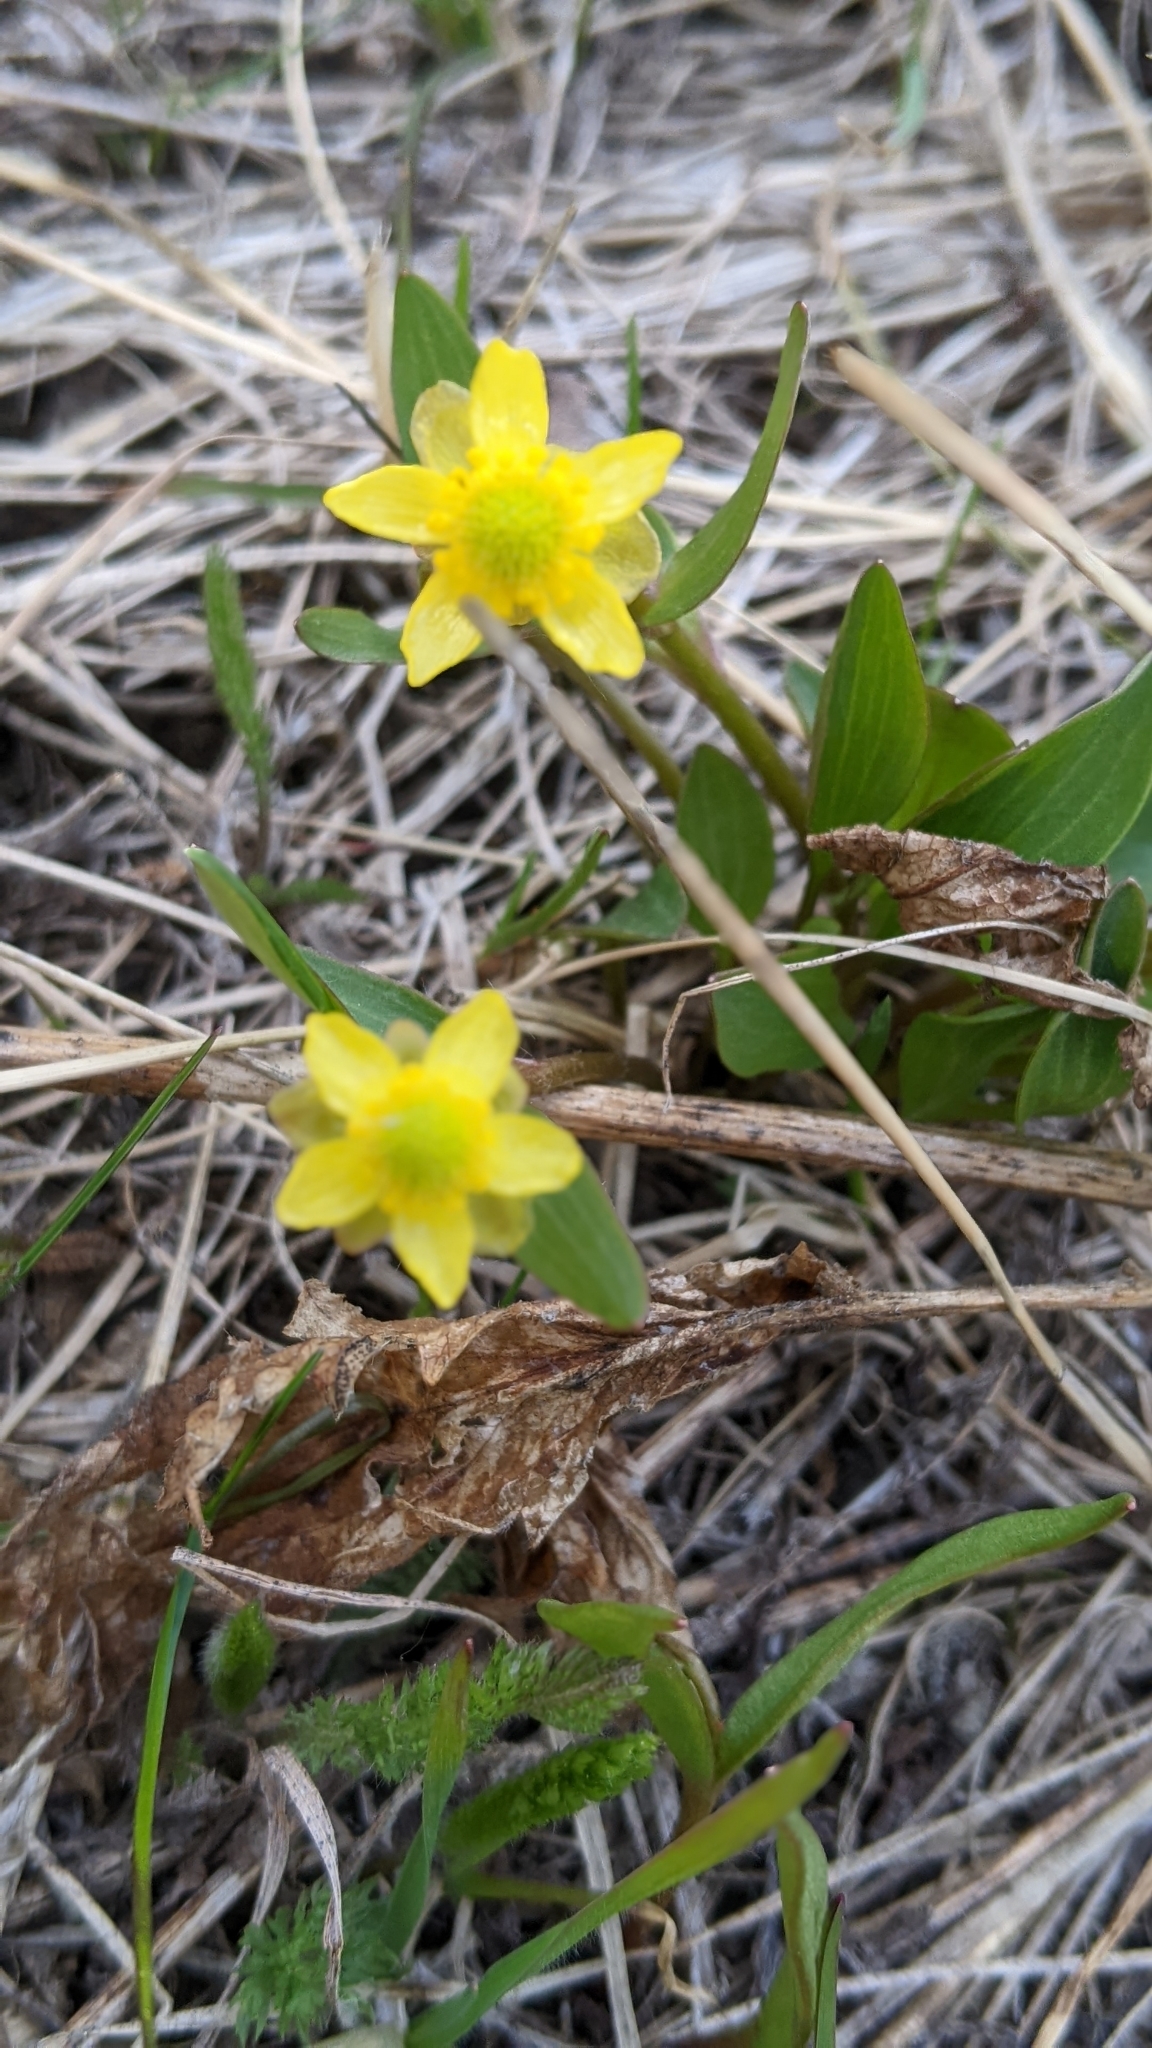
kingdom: Plantae
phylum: Tracheophyta
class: Magnoliopsida
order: Ranunculales
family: Ranunculaceae
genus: Ranunculus
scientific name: Ranunculus glaberrimus
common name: Sagebrush buttercup
